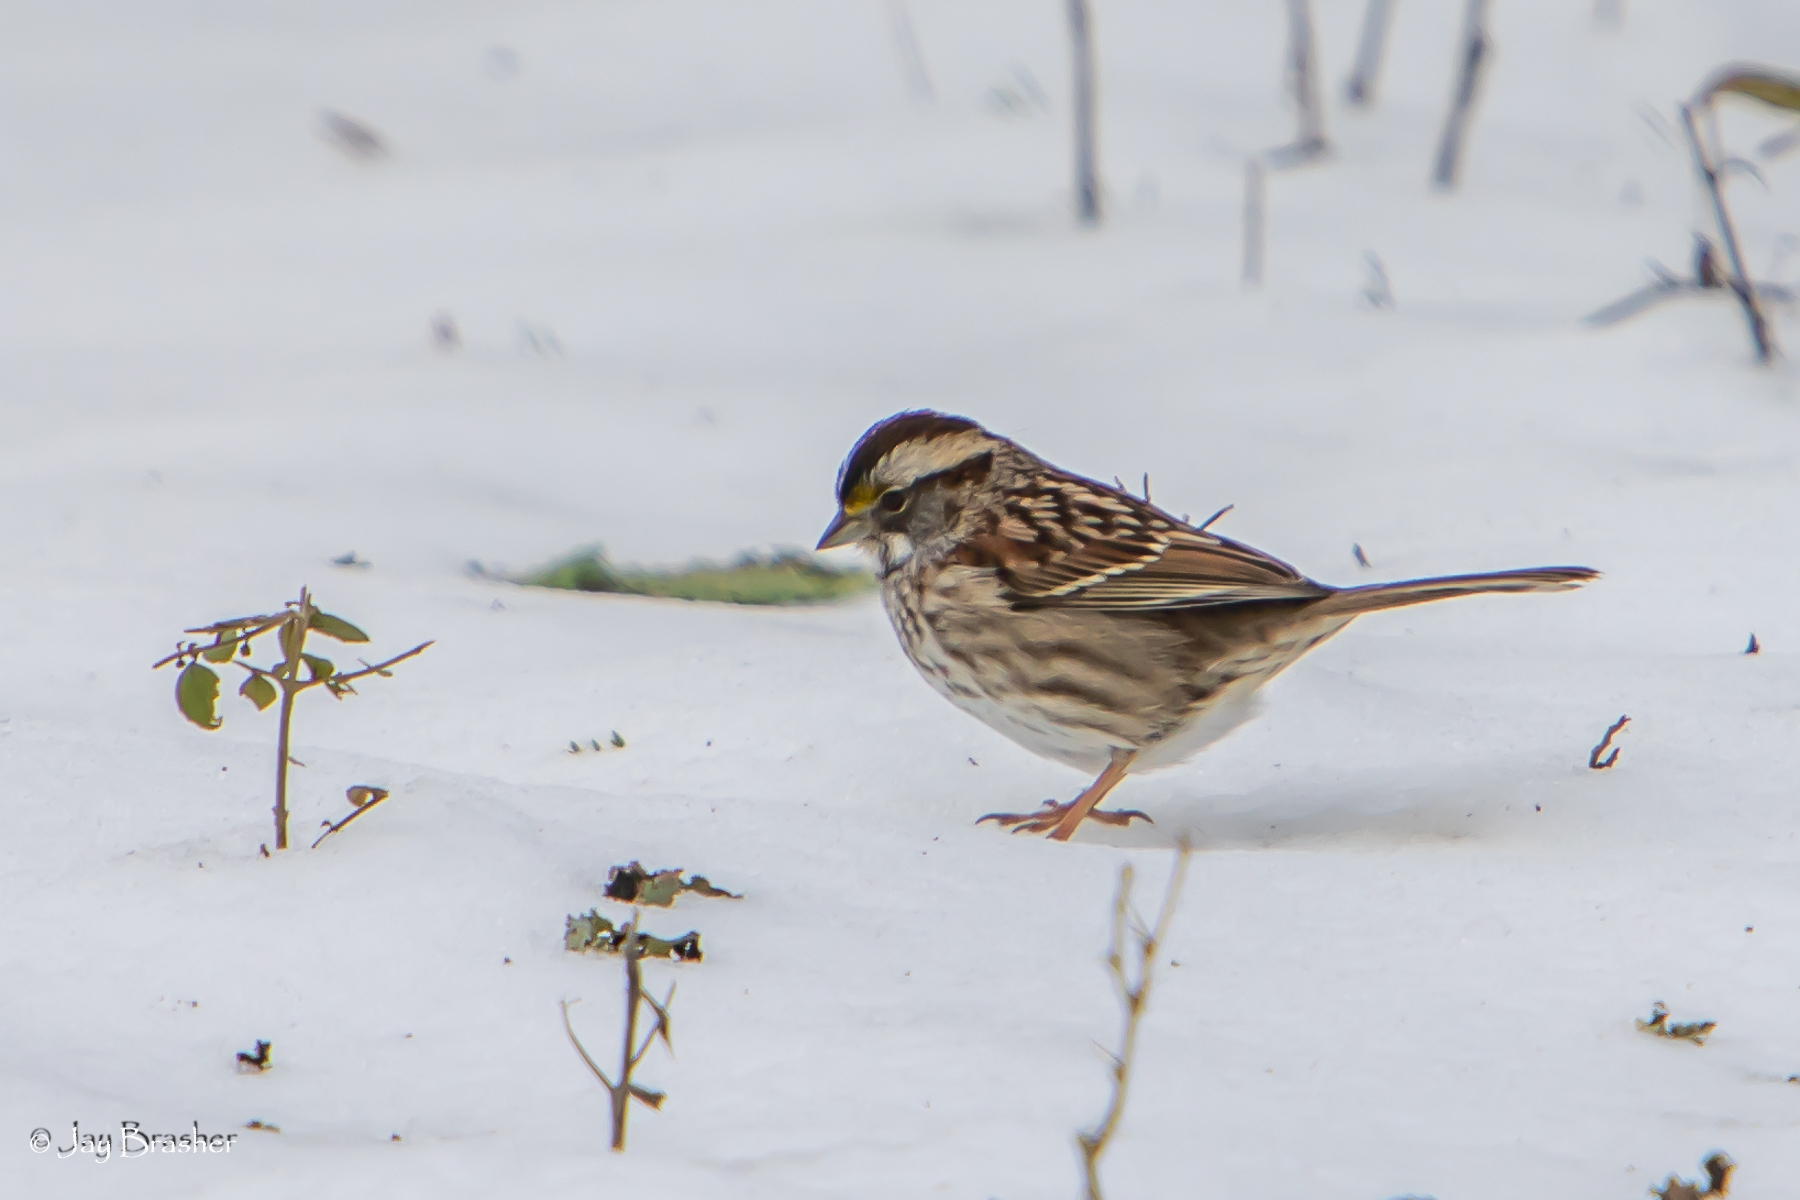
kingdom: Animalia
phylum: Chordata
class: Aves
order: Passeriformes
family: Passerellidae
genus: Zonotrichia
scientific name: Zonotrichia albicollis
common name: White-throated sparrow
